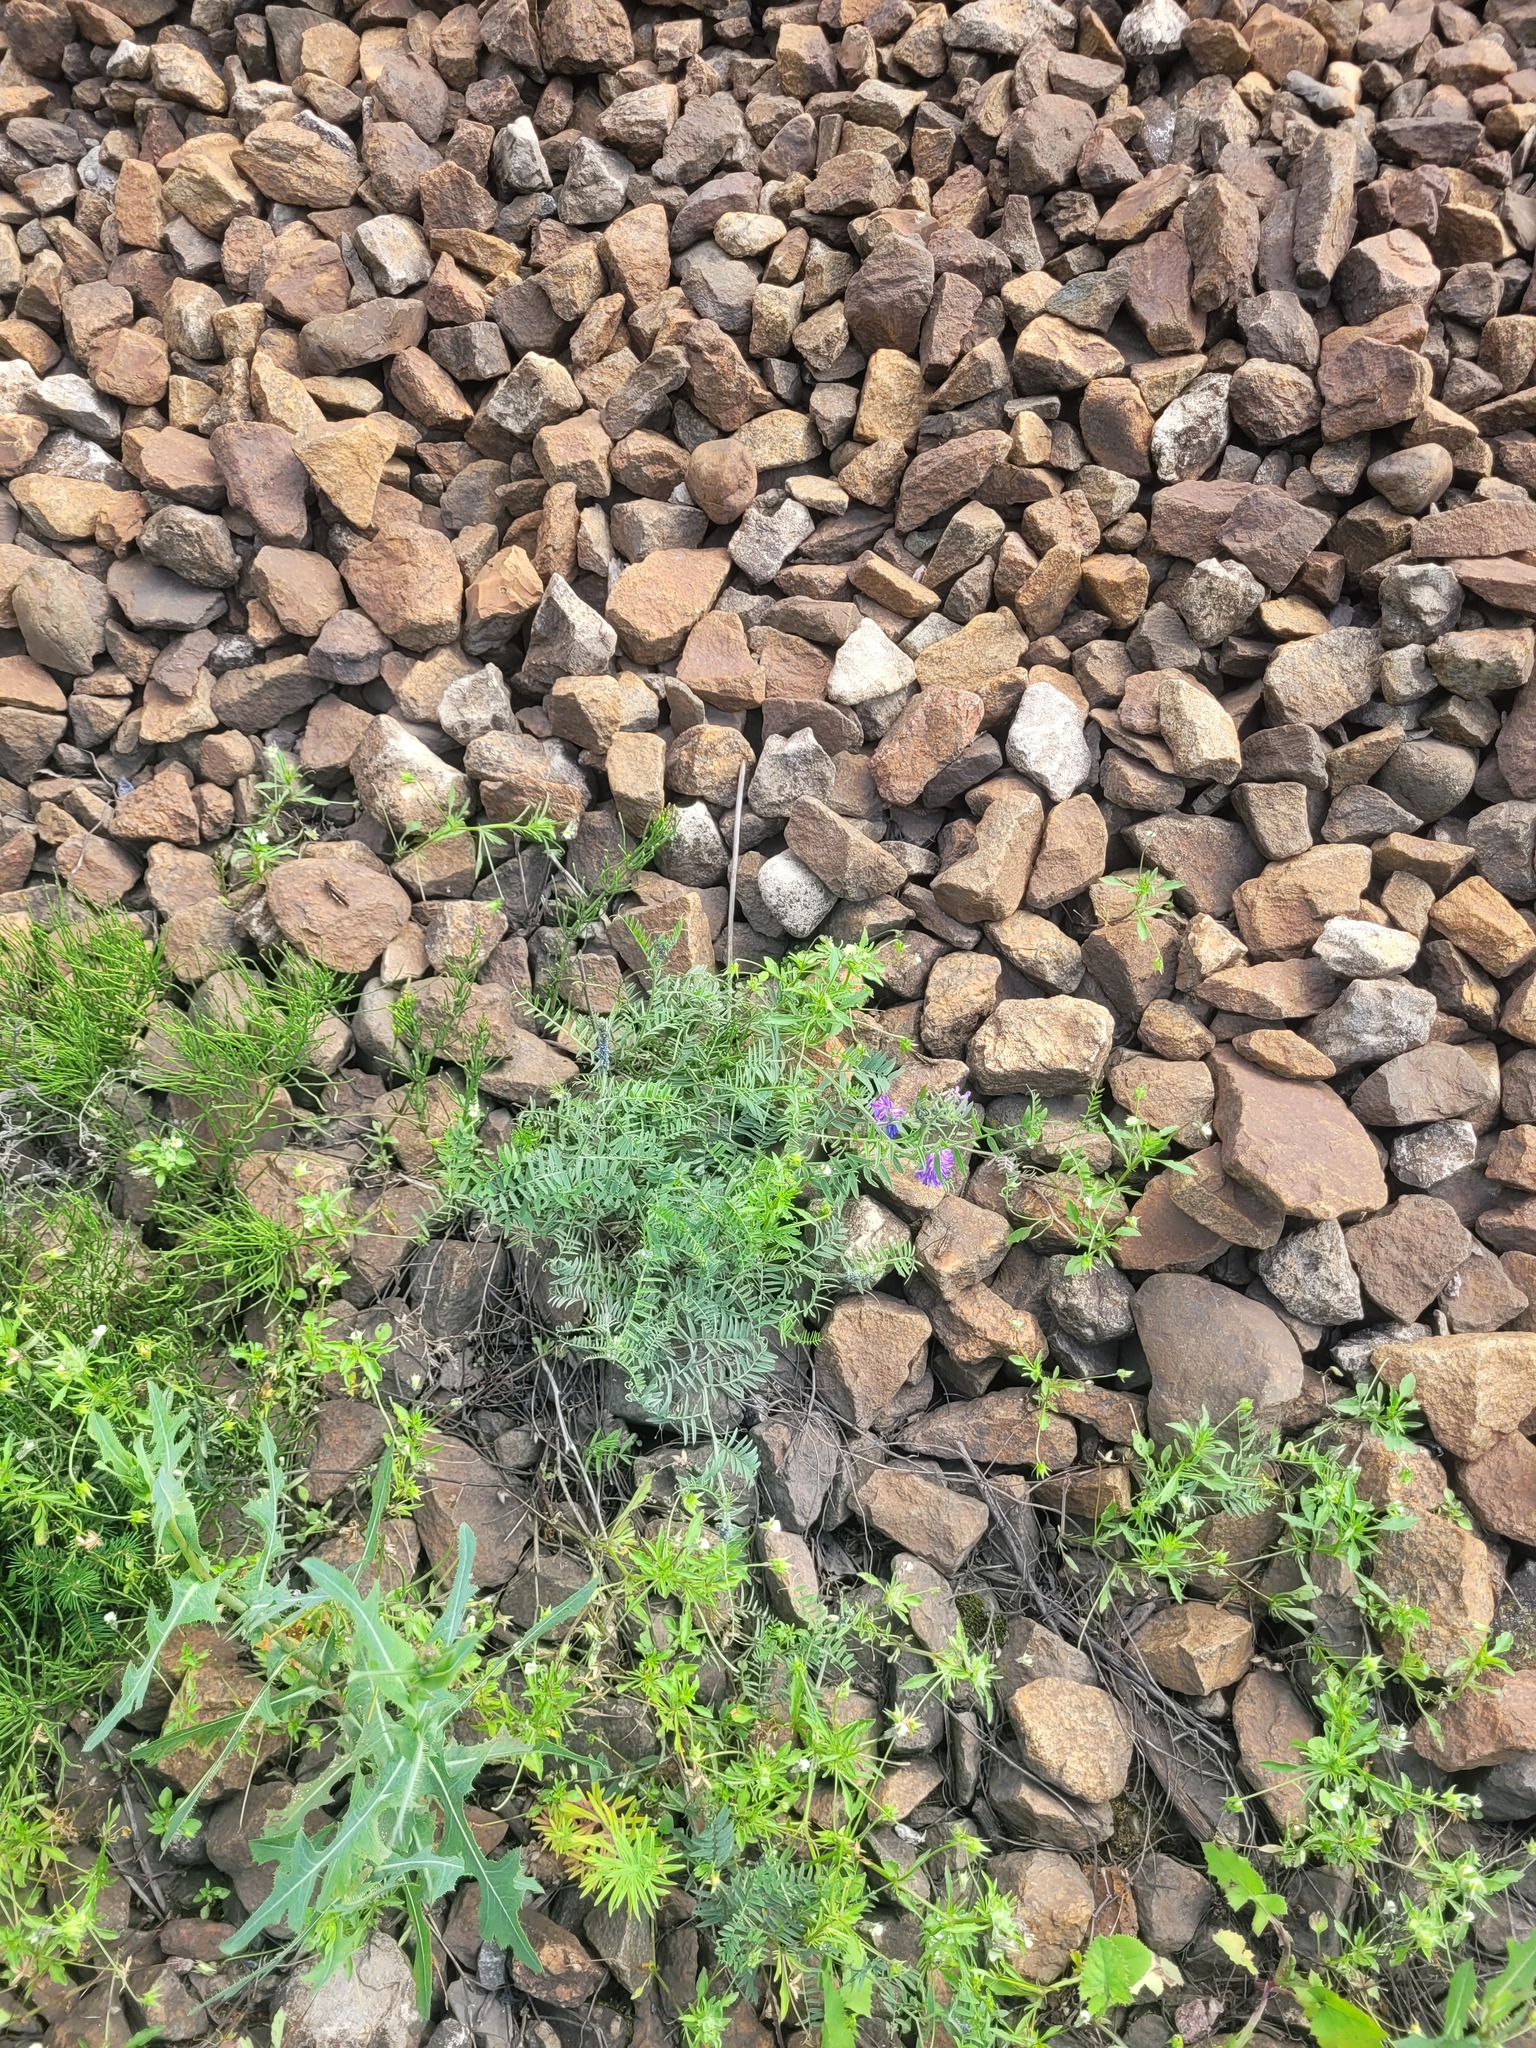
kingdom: Plantae
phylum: Tracheophyta
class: Magnoliopsida
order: Fabales
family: Fabaceae
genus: Vicia
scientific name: Vicia cracca
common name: Bird vetch
